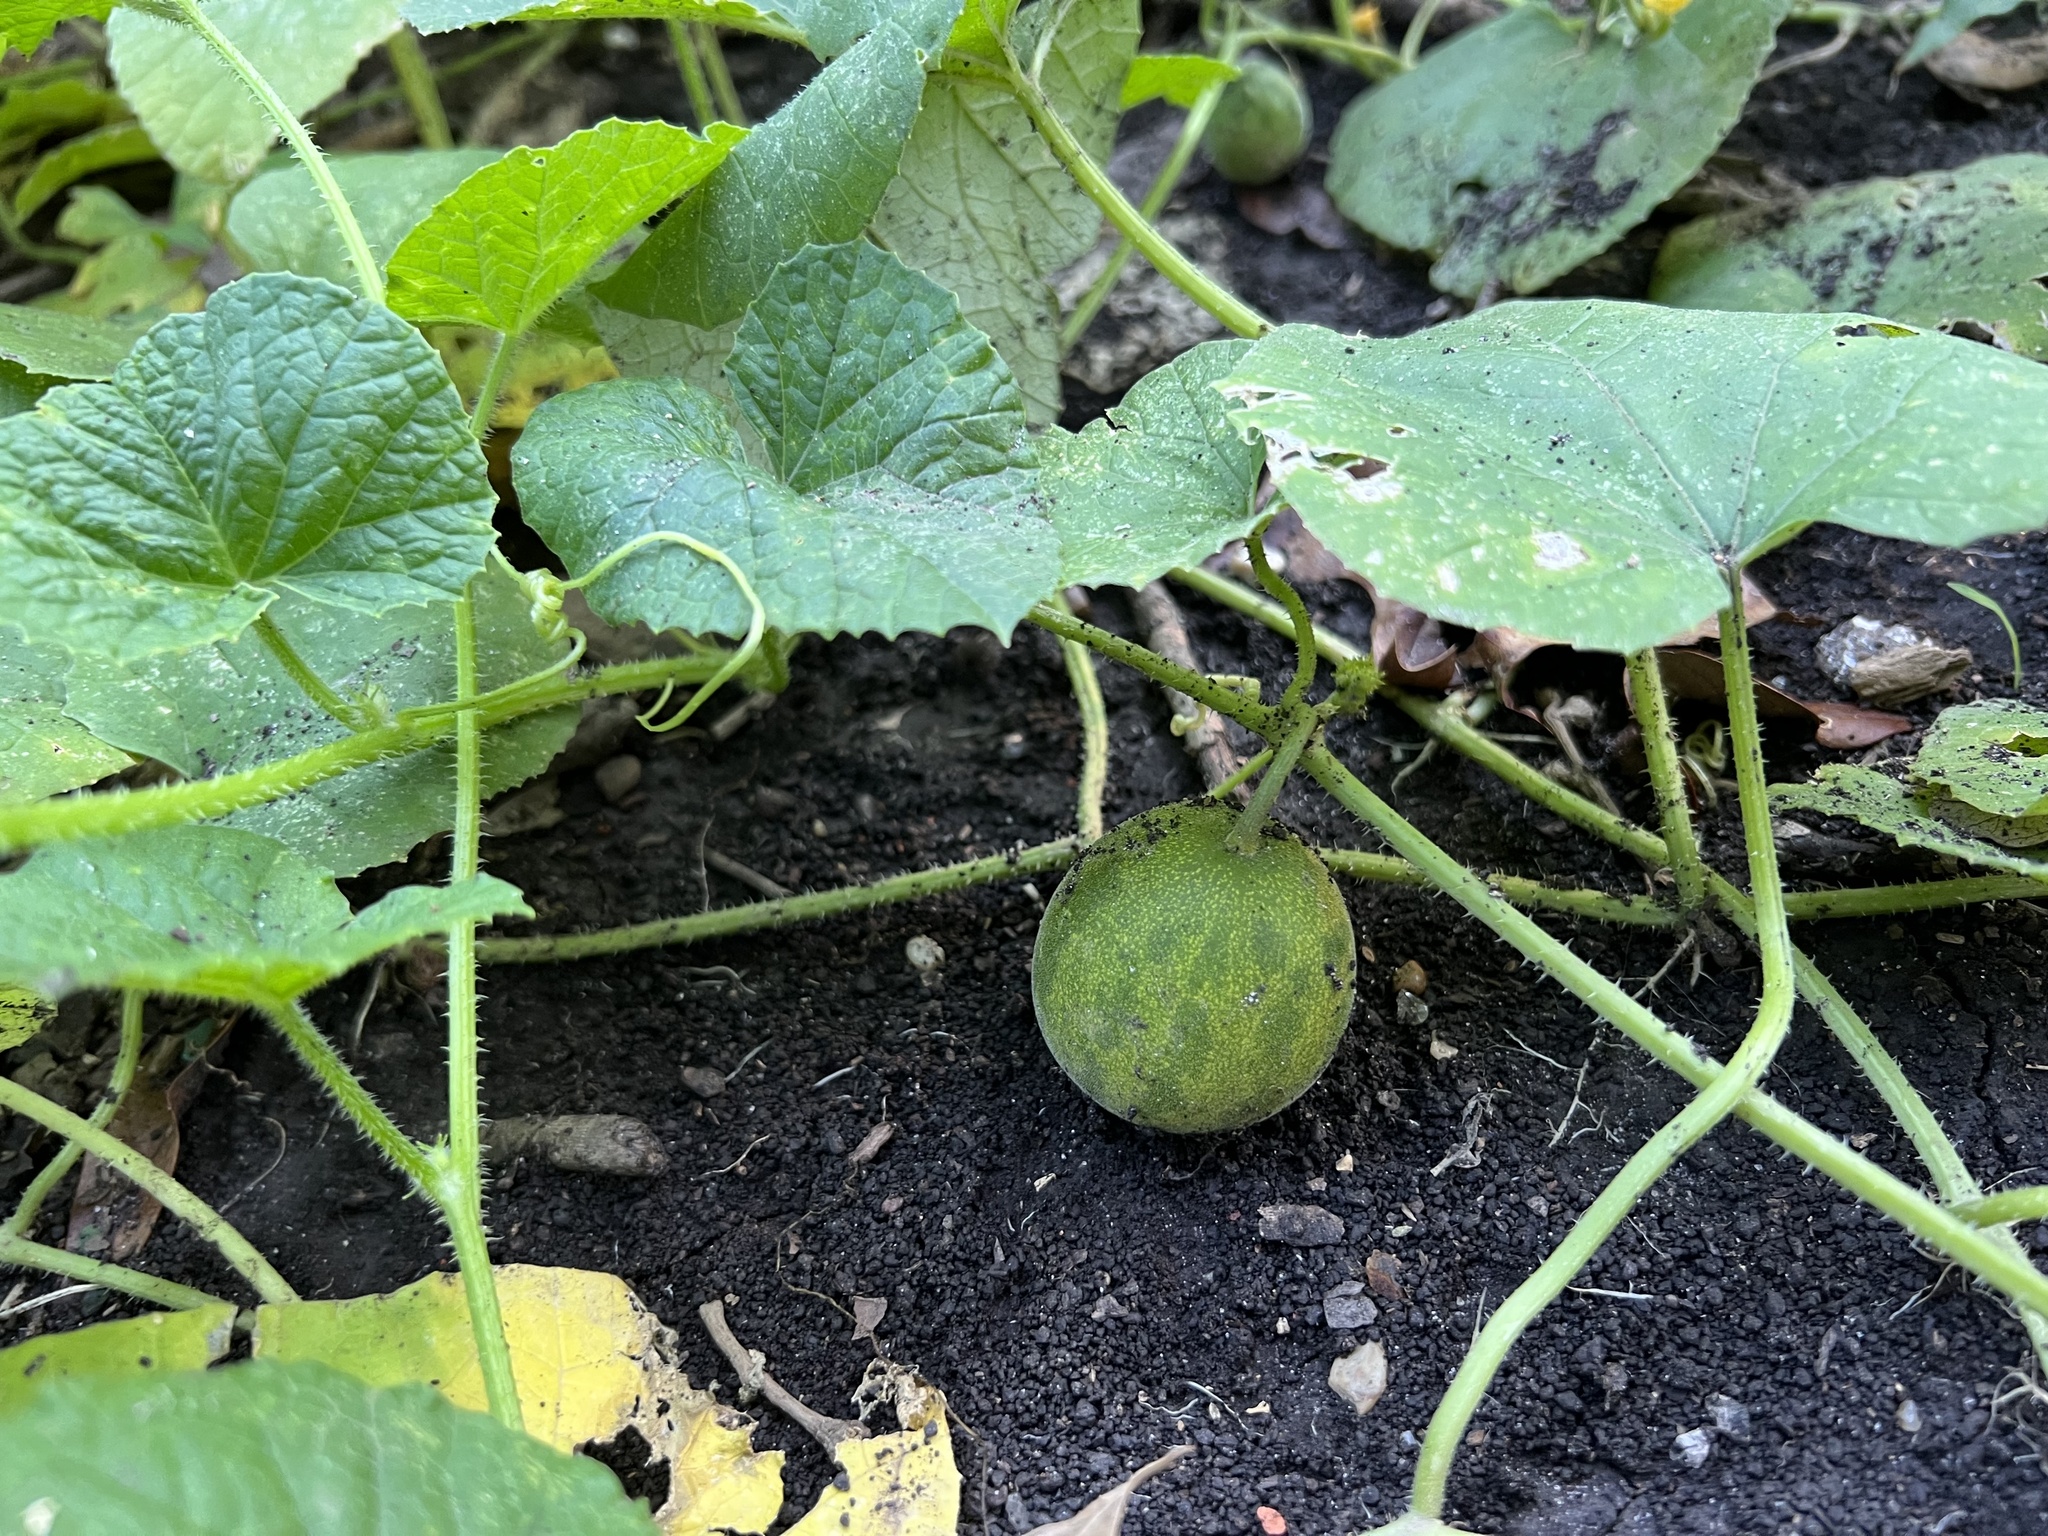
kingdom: Plantae
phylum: Tracheophyta
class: Magnoliopsida
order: Cucurbitales
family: Cucurbitaceae
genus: Cucumis
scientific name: Cucumis melo
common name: Melon
